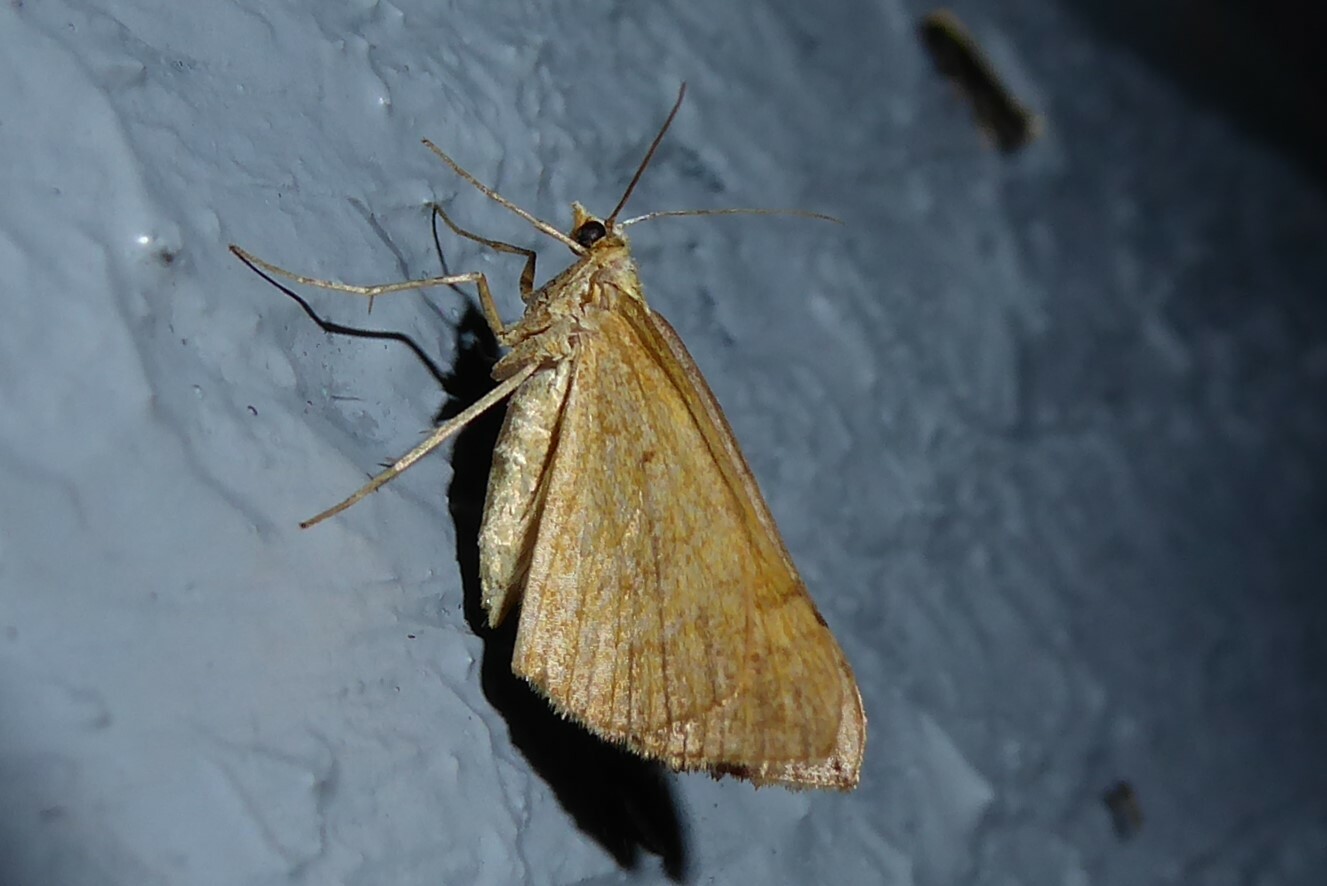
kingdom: Animalia
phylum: Arthropoda
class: Insecta
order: Lepidoptera
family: Geometridae
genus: Anachloris
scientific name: Anachloris subochraria
